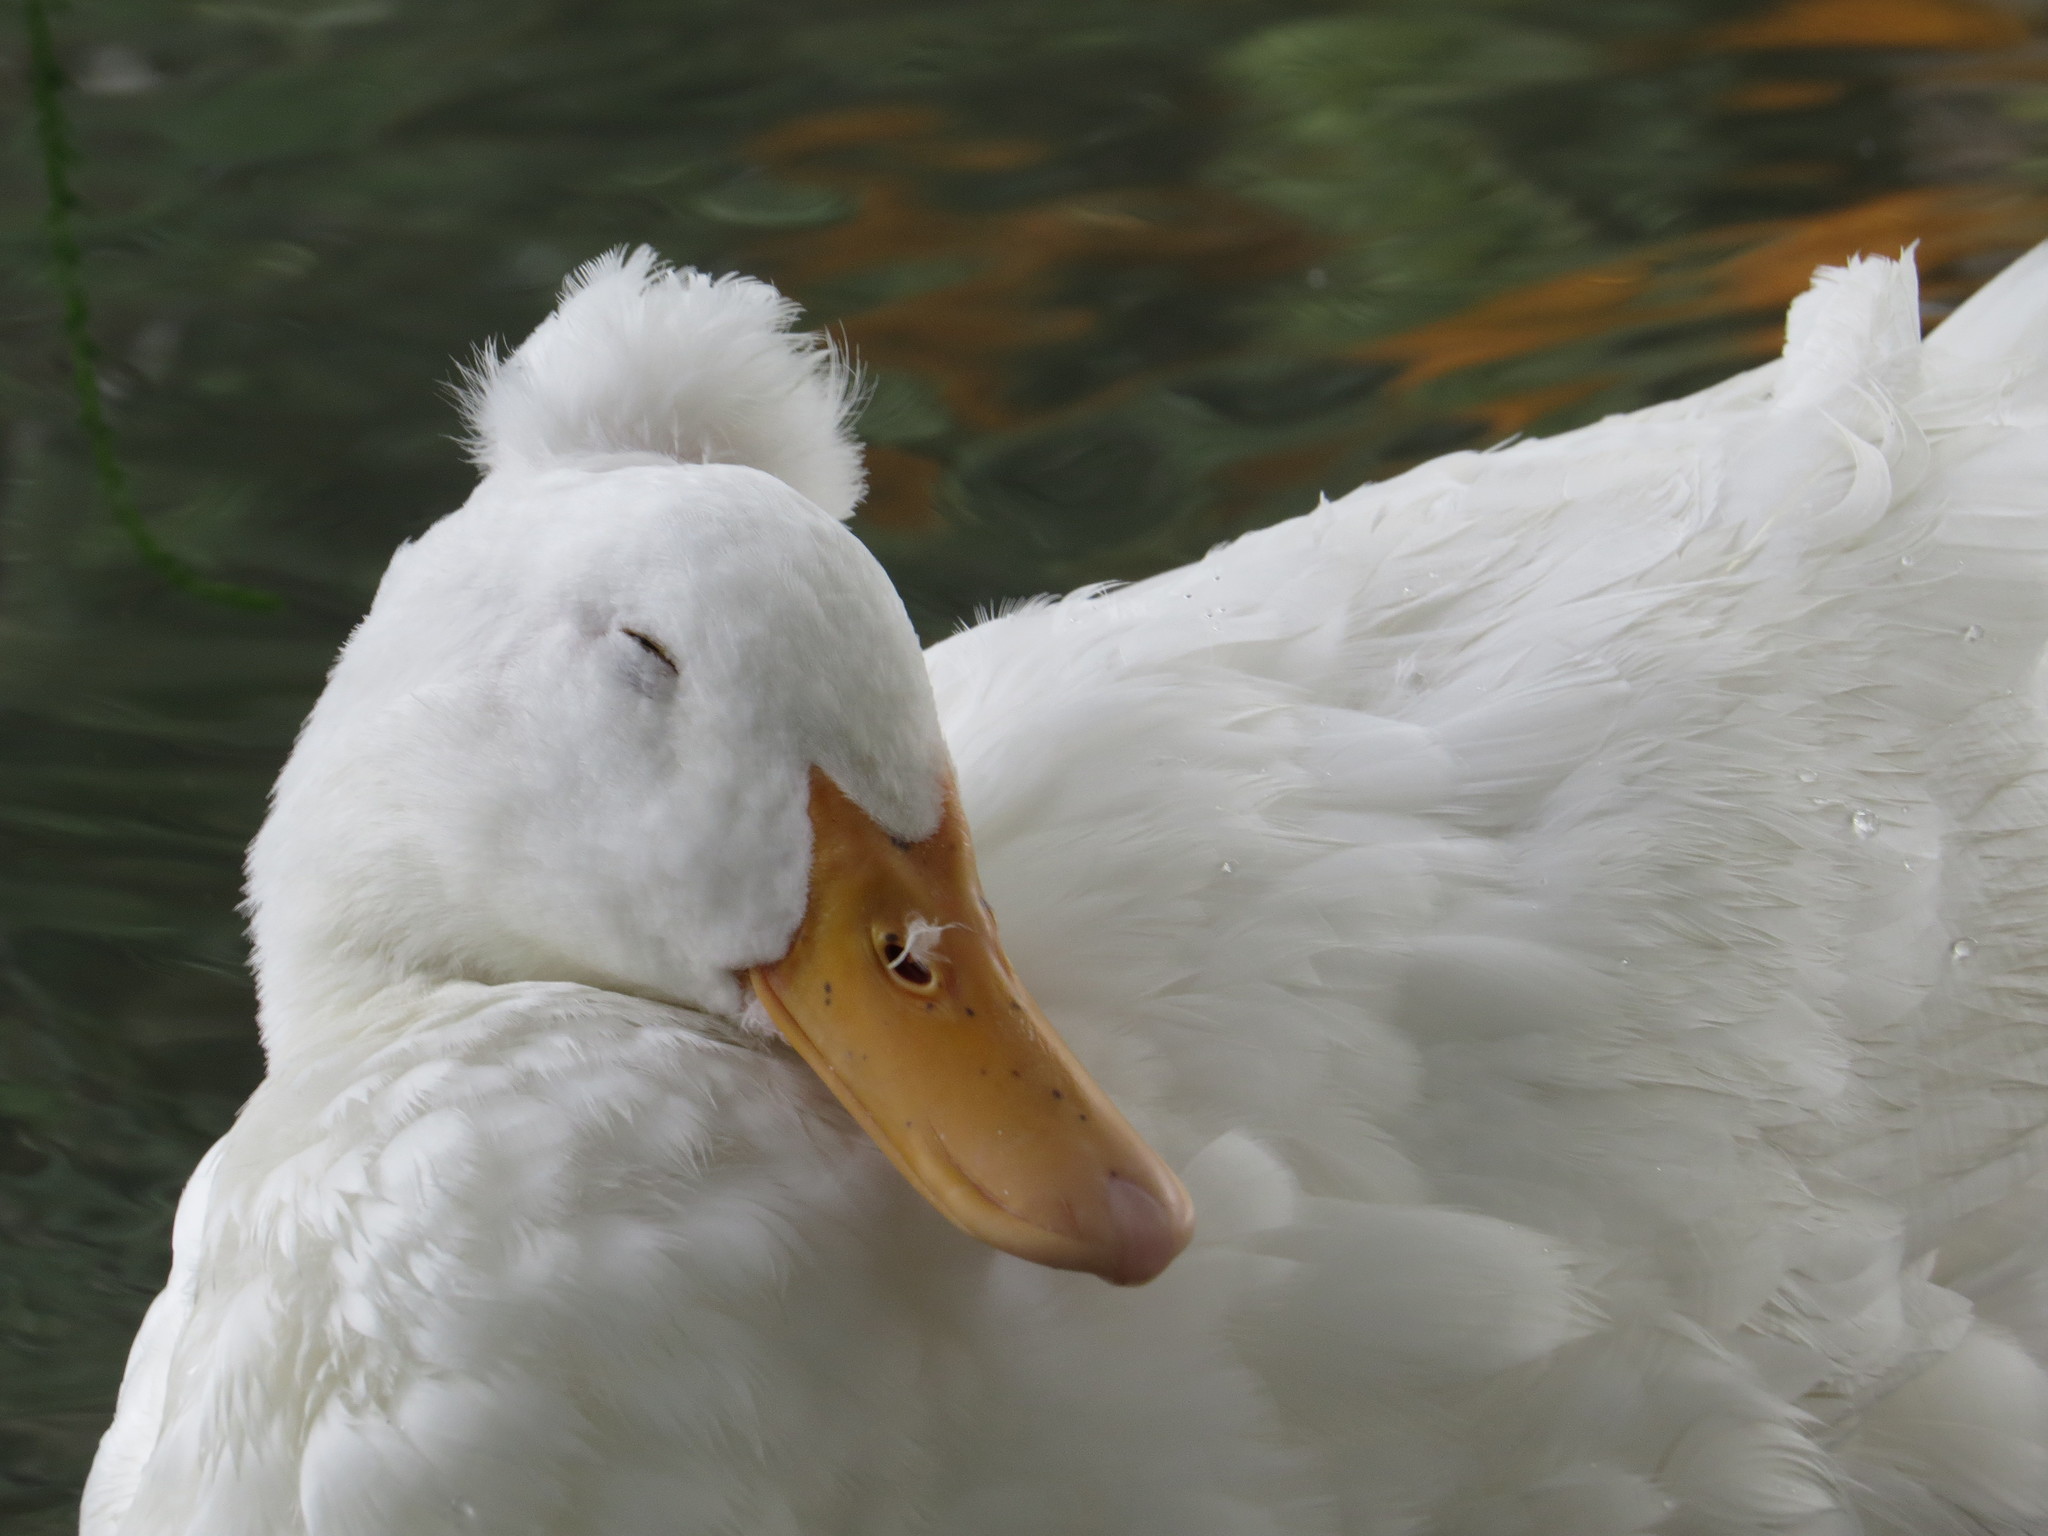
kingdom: Animalia
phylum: Chordata
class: Aves
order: Anseriformes
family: Anatidae
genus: Anas
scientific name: Anas platyrhynchos
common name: Mallard
